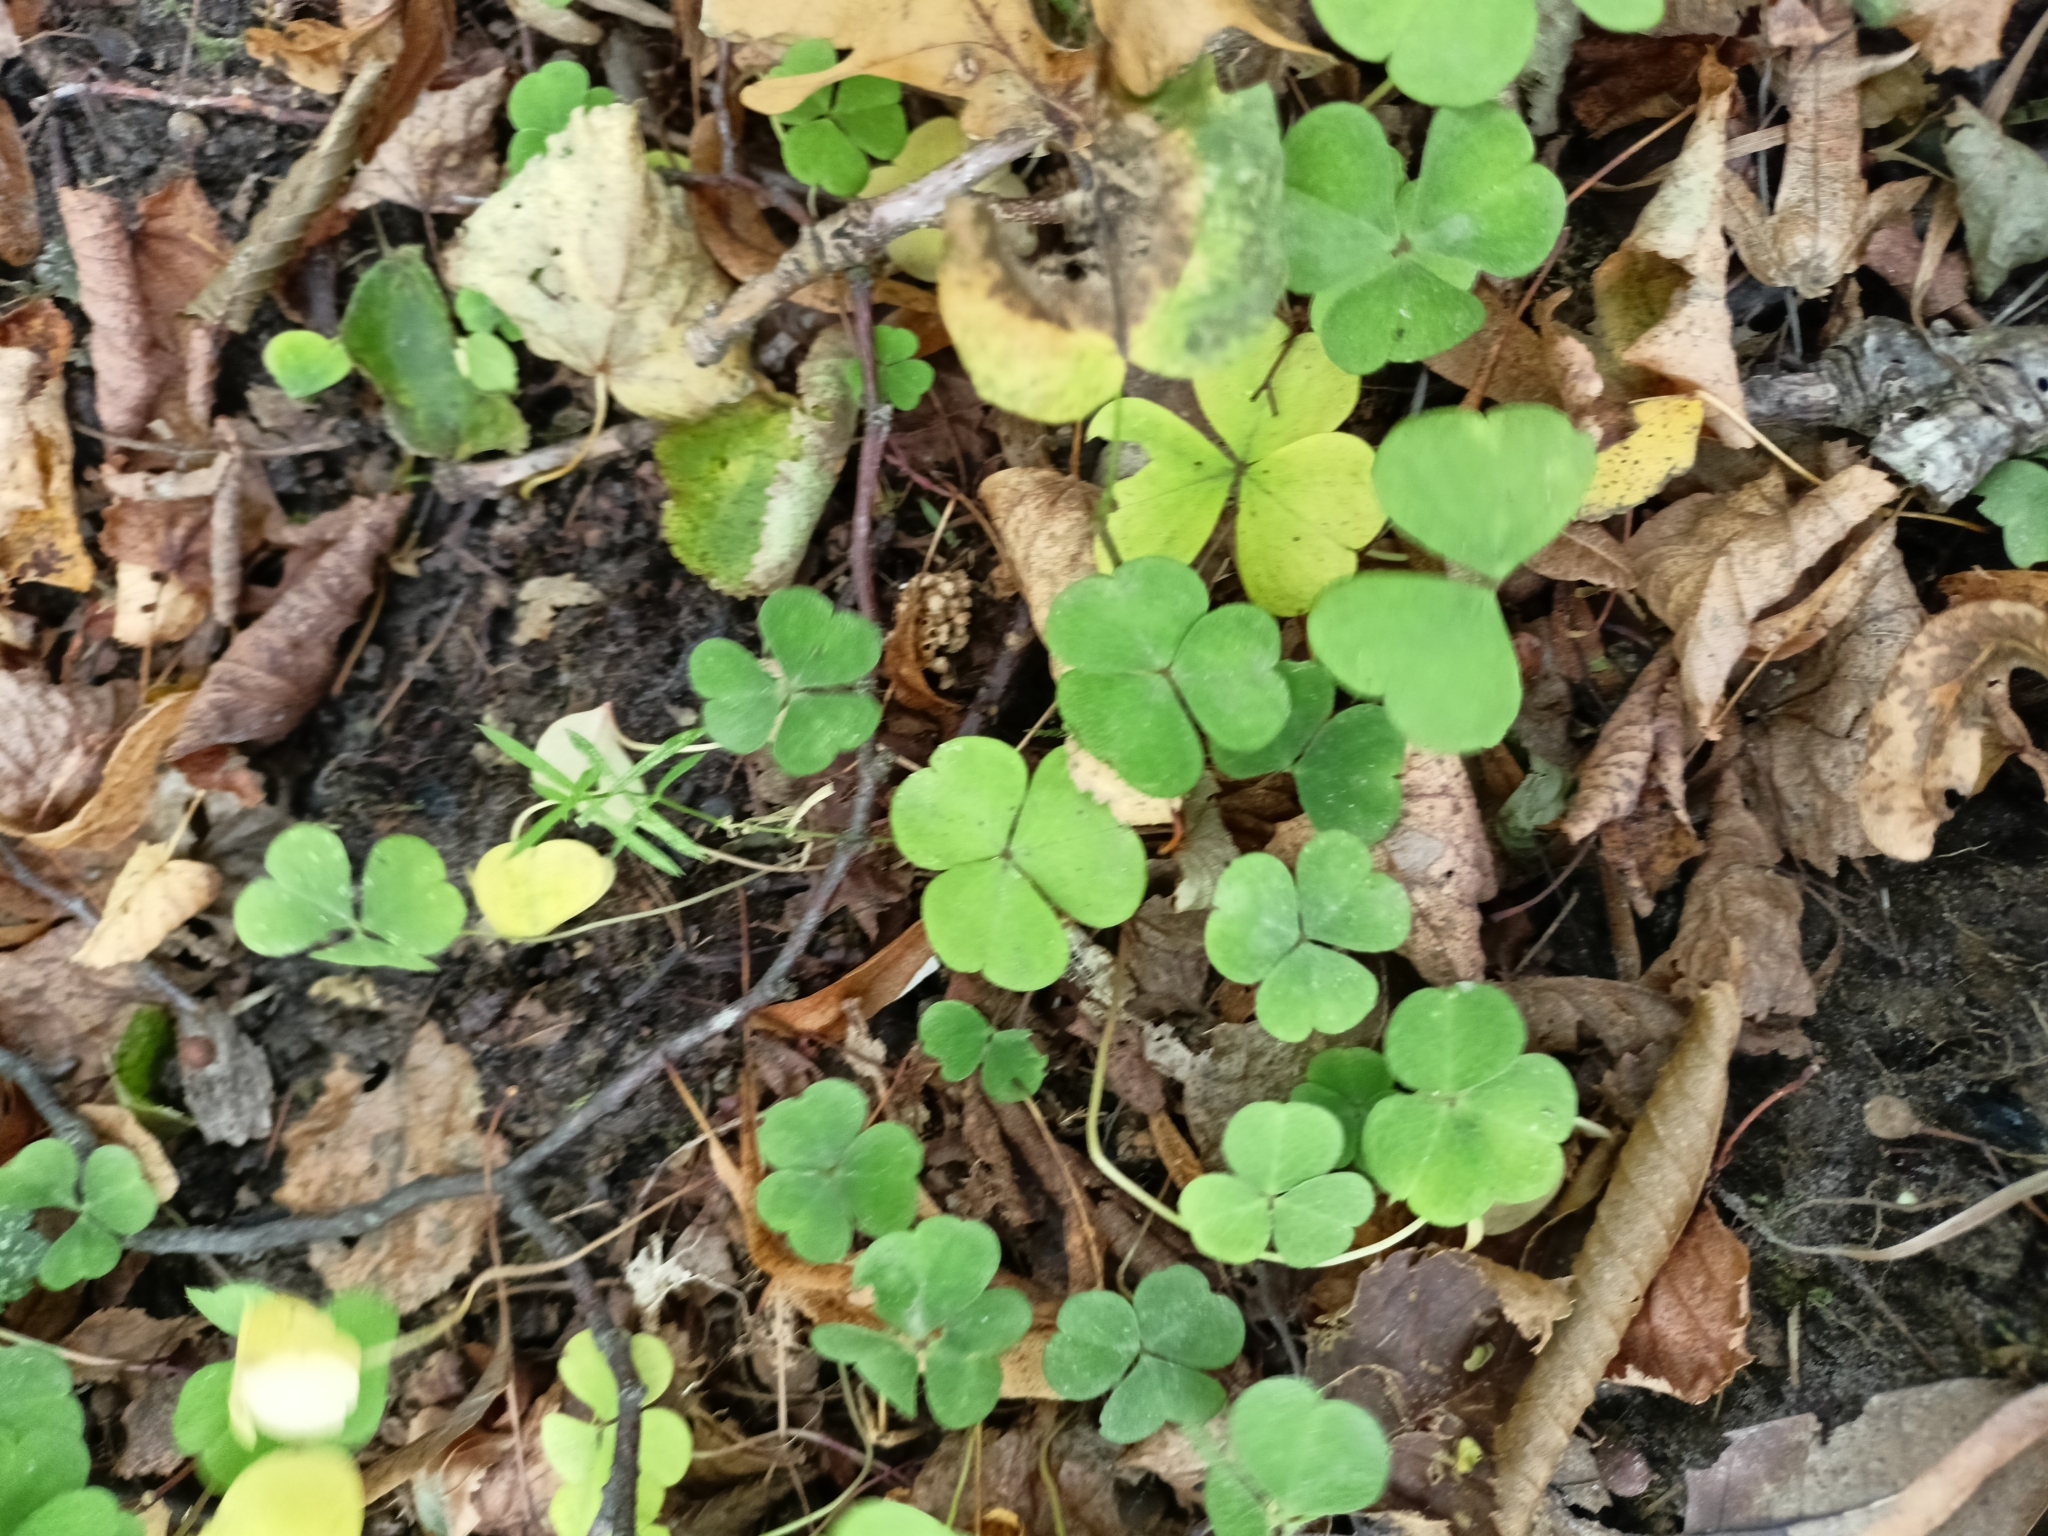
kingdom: Plantae
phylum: Tracheophyta
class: Magnoliopsida
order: Oxalidales
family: Oxalidaceae
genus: Oxalis
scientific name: Oxalis acetosella
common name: Wood-sorrel
